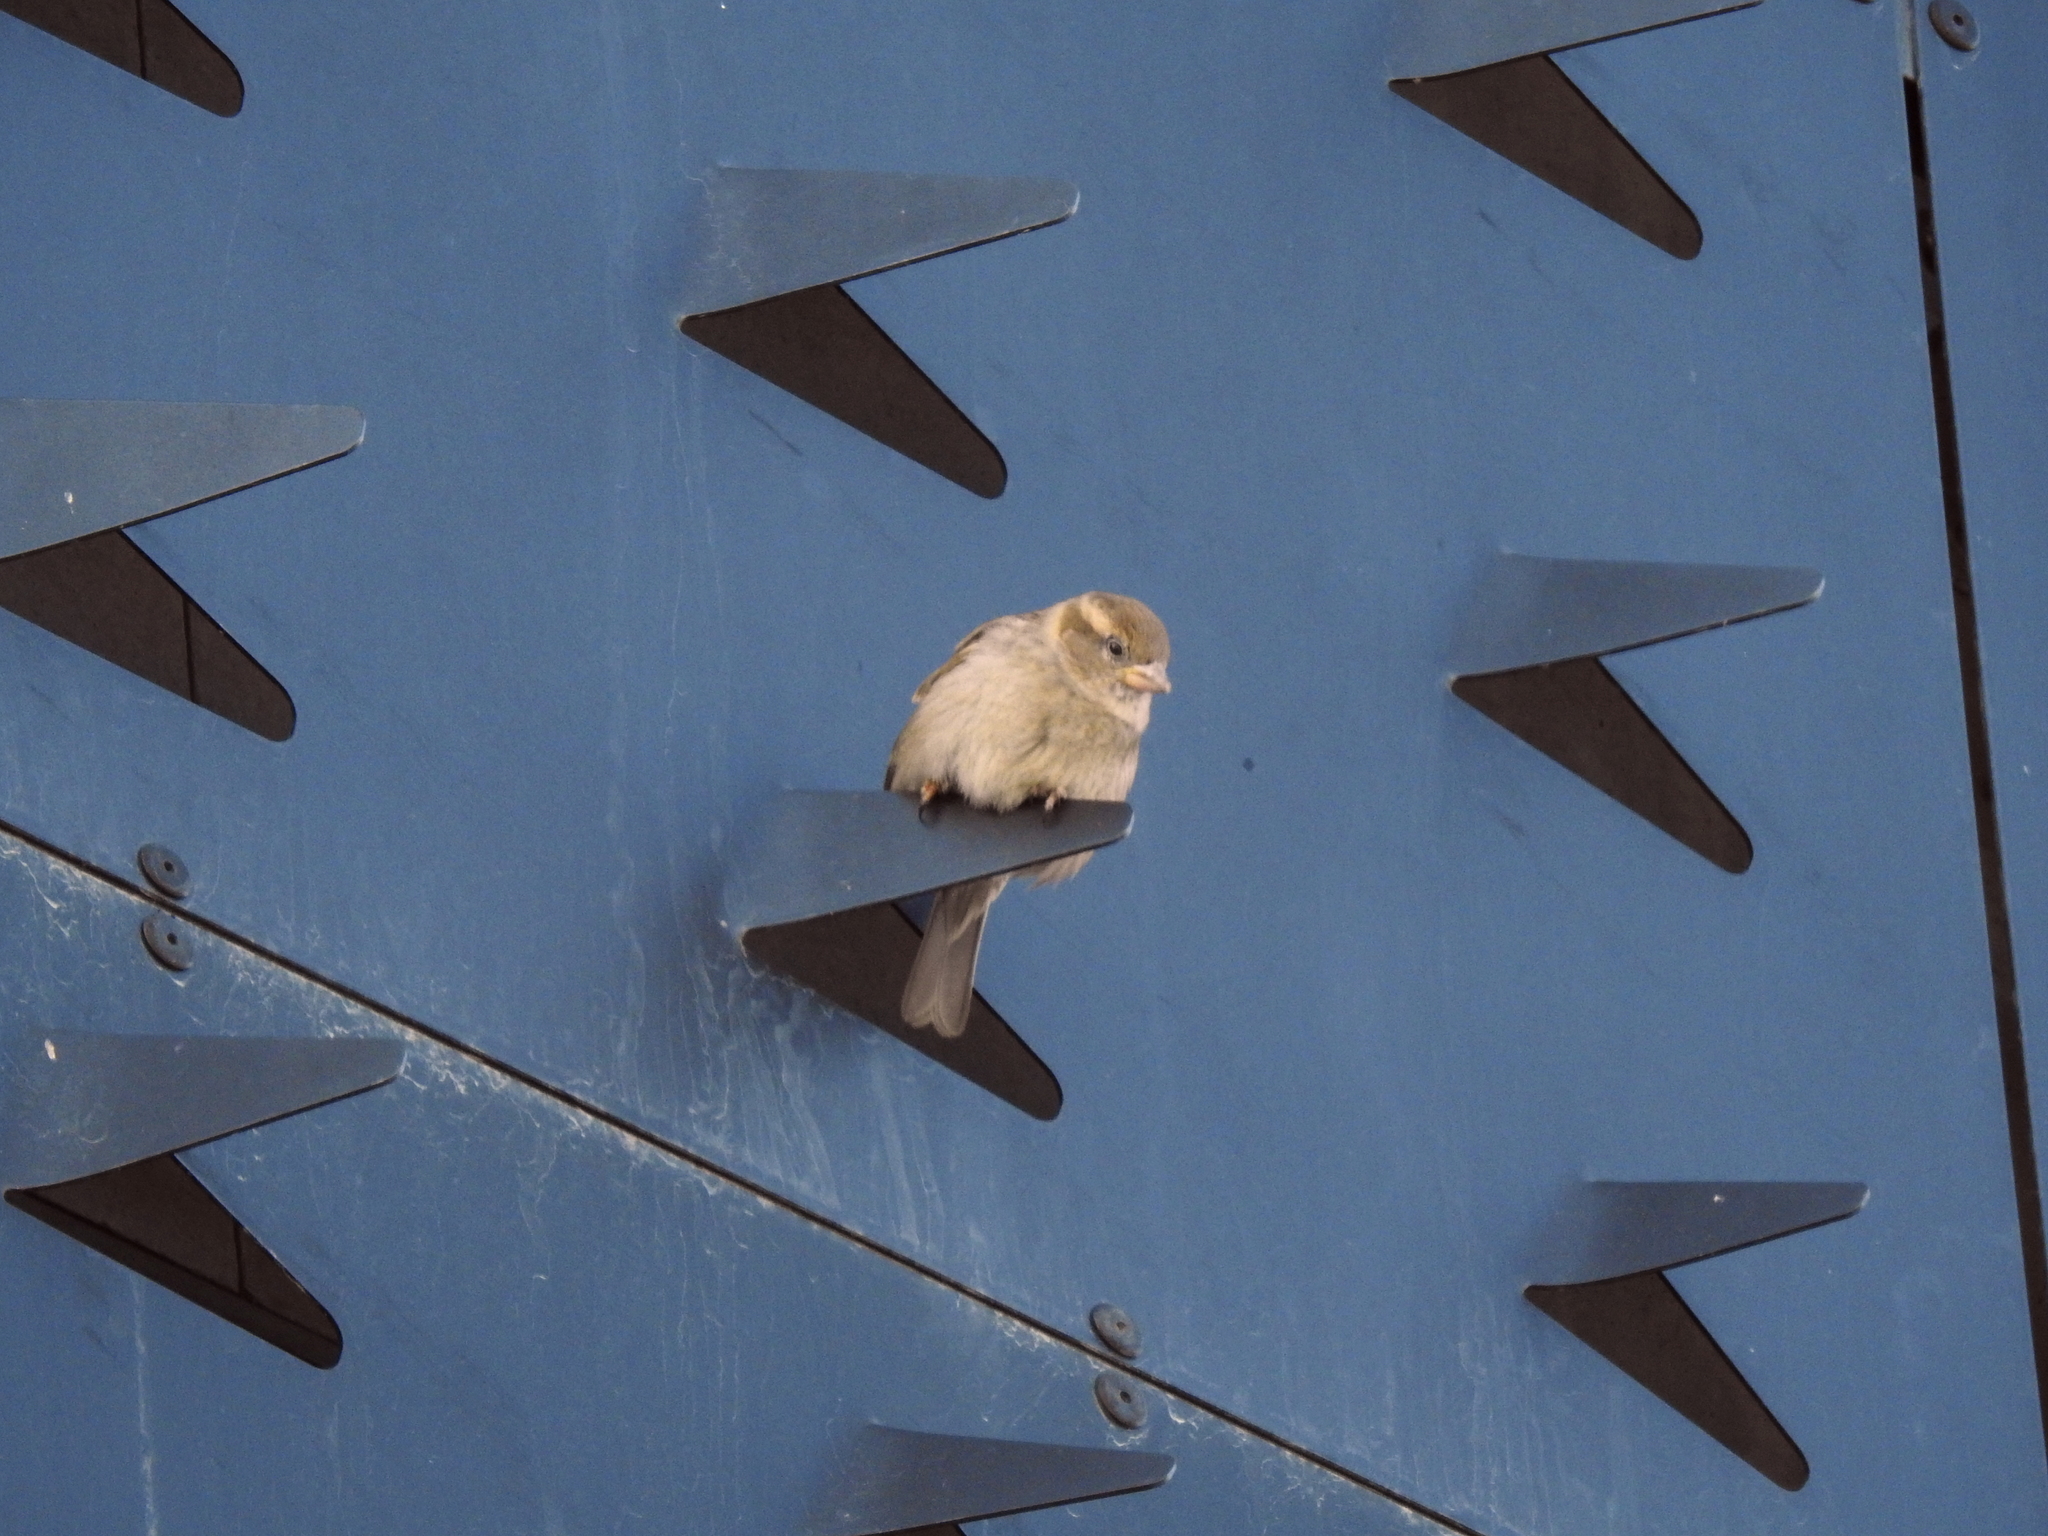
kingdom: Animalia
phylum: Chordata
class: Aves
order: Passeriformes
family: Passeridae
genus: Passer
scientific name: Passer domesticus
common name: House sparrow
